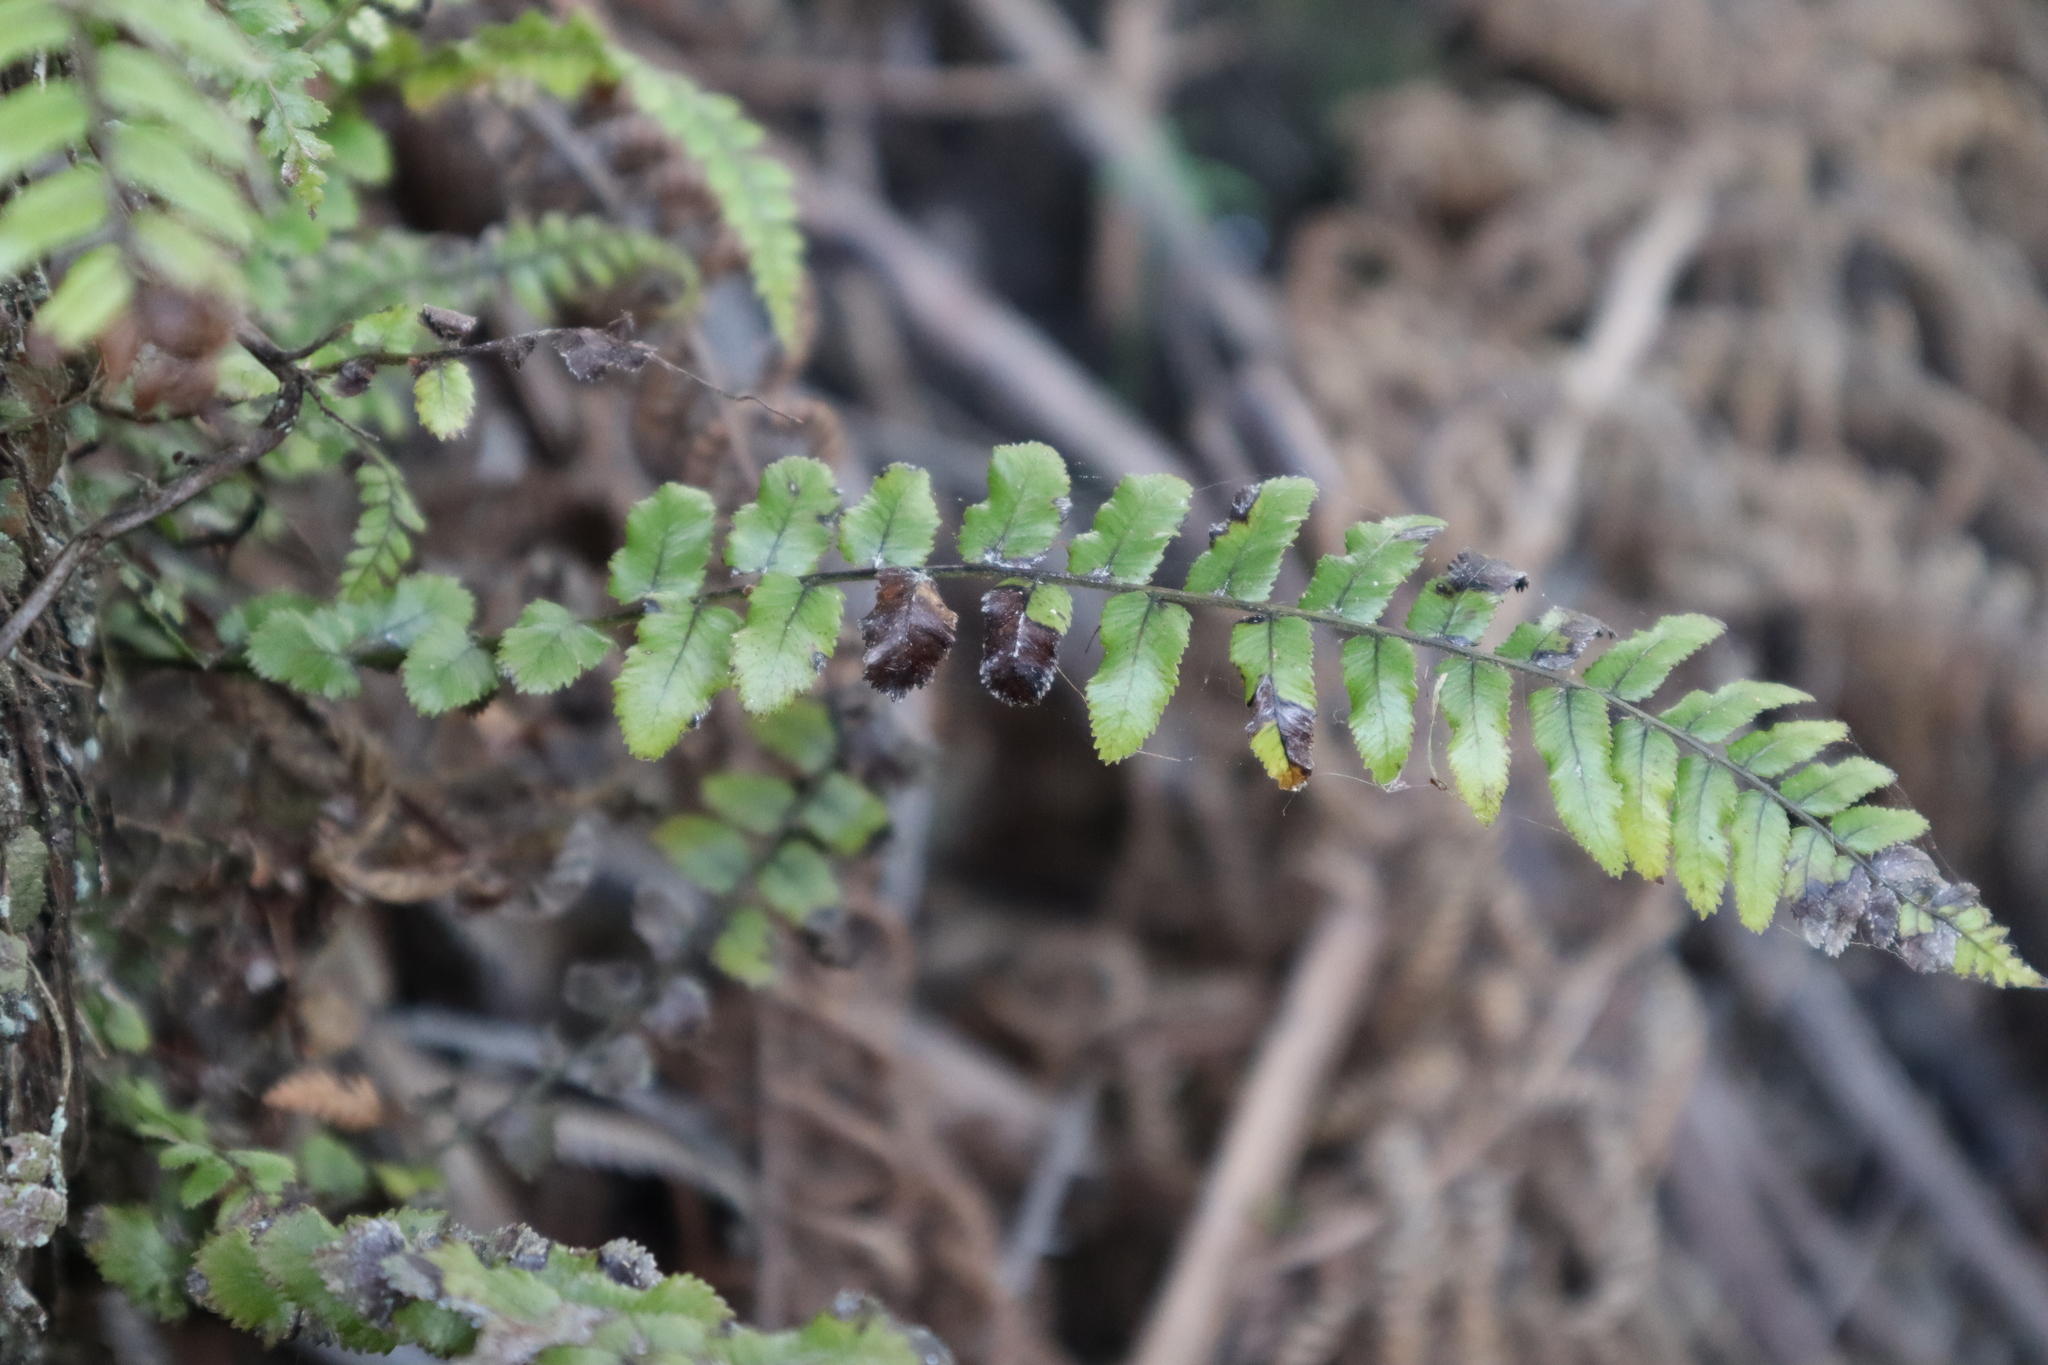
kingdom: Plantae
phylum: Tracheophyta
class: Polypodiopsida
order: Polypodiales
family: Blechnaceae
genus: Icarus
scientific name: Icarus filiformis
